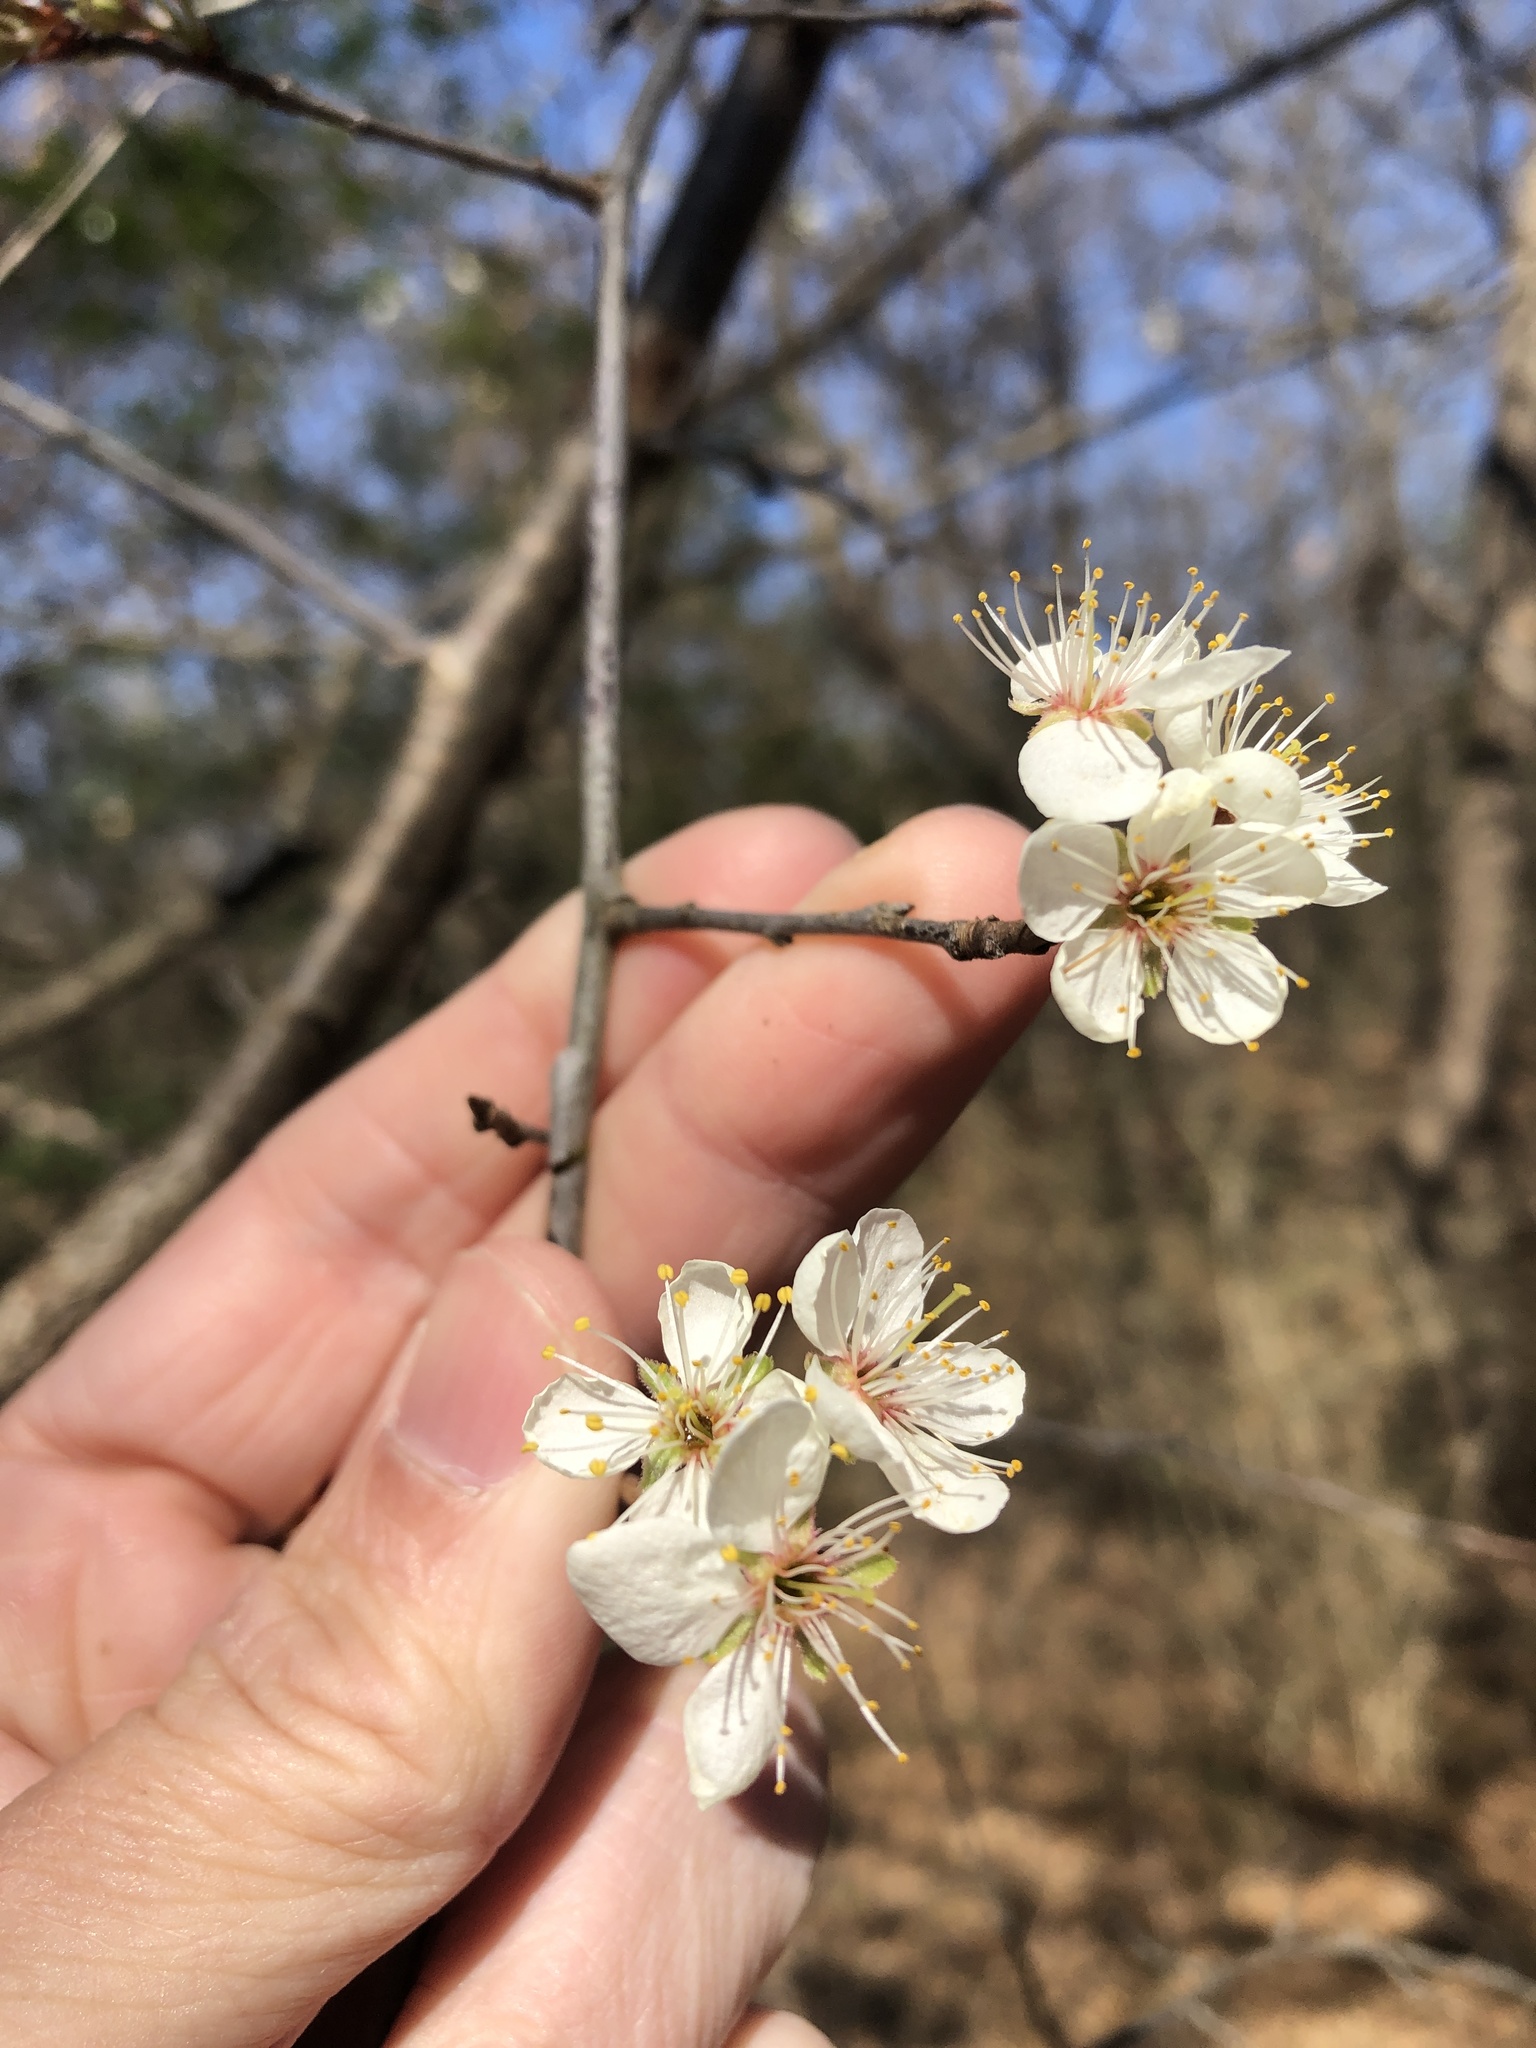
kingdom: Plantae
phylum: Tracheophyta
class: Magnoliopsida
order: Rosales
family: Rosaceae
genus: Prunus
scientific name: Prunus mexicana
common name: Mexican plum
